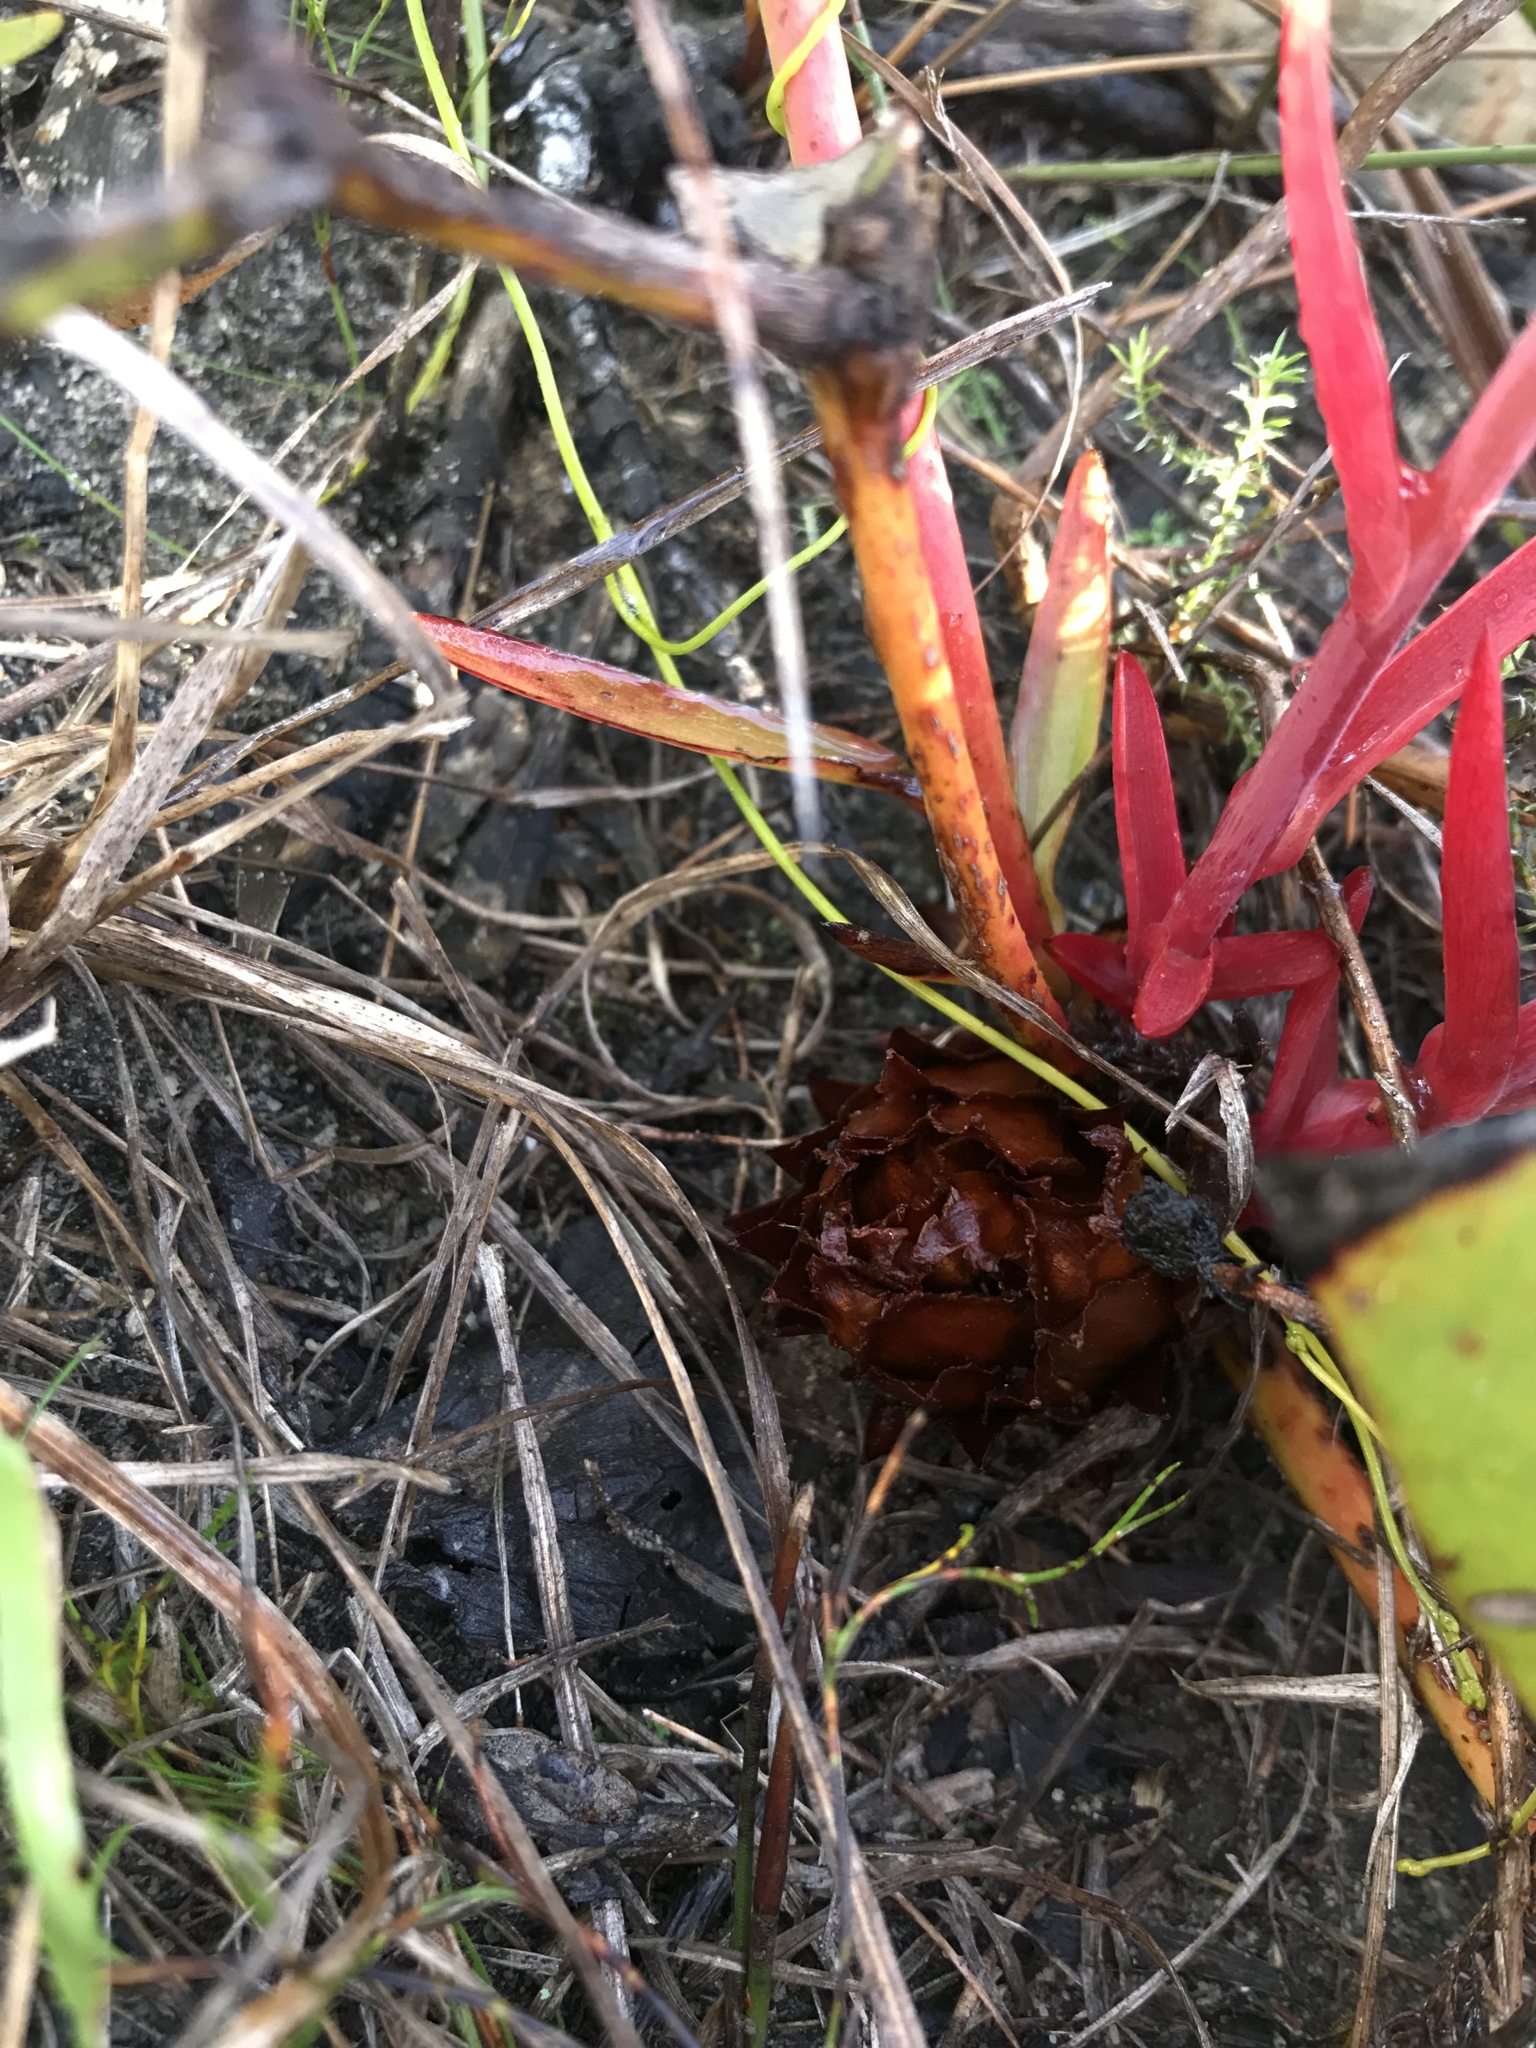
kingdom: Plantae
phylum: Tracheophyta
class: Magnoliopsida
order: Proteales
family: Proteaceae
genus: Protea
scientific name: Protea cordata
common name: Heart-leaf sugarbush
